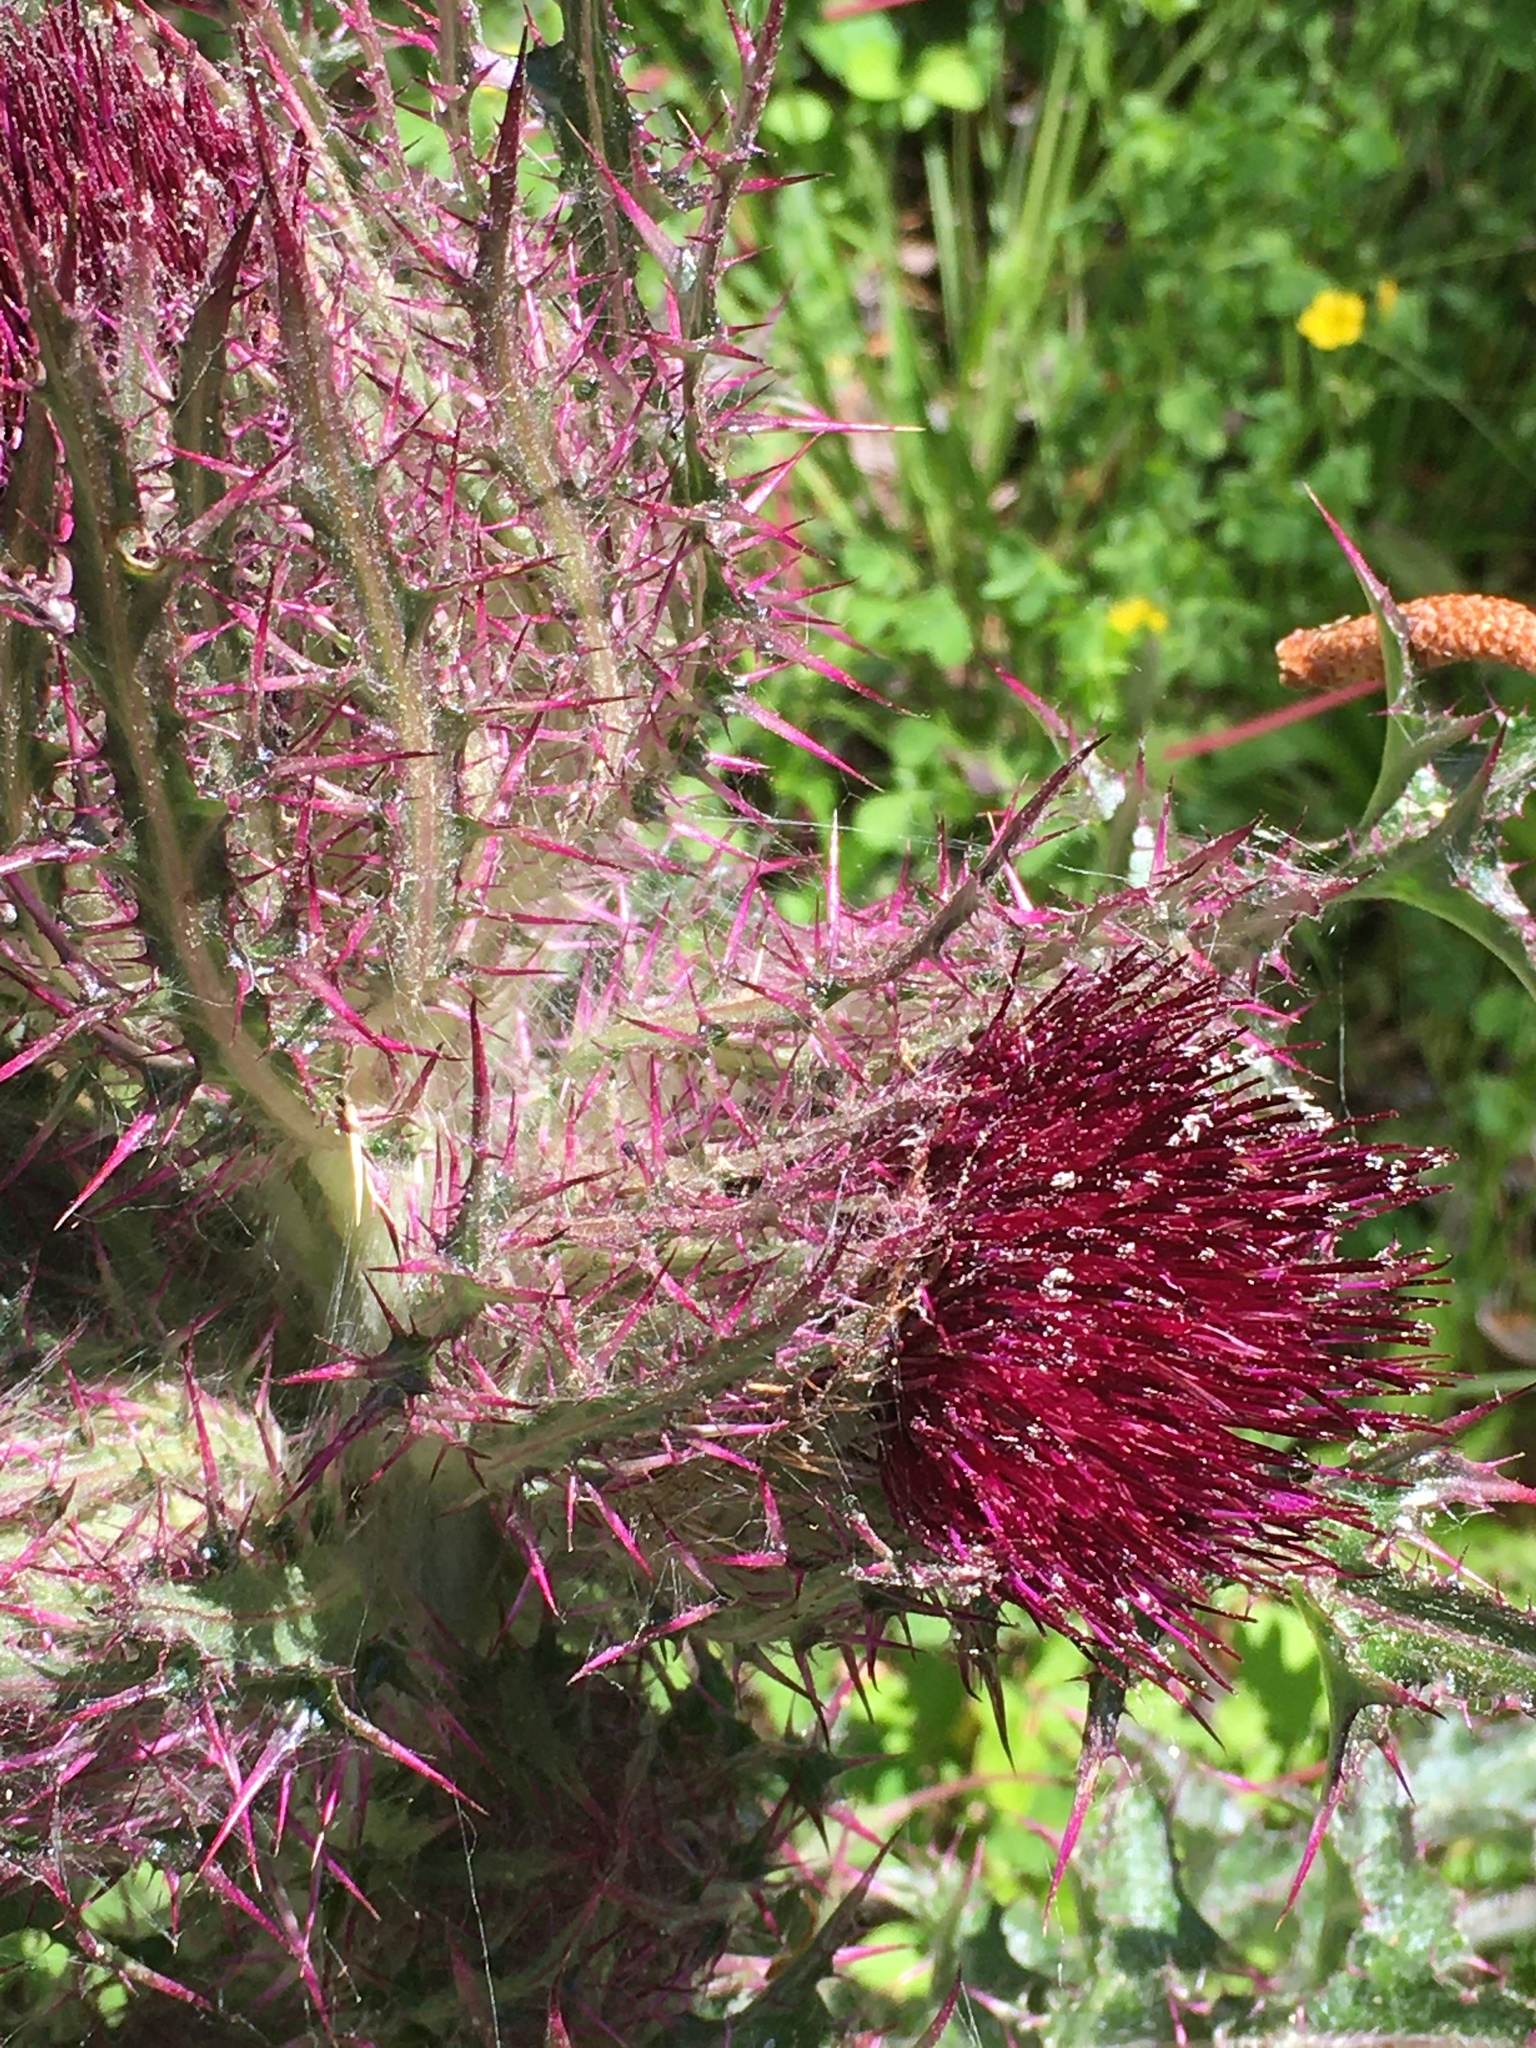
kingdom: Plantae
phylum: Tracheophyta
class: Magnoliopsida
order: Asterales
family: Asteraceae
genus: Cirsium
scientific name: Cirsium horridulum
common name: Bristly thistle
